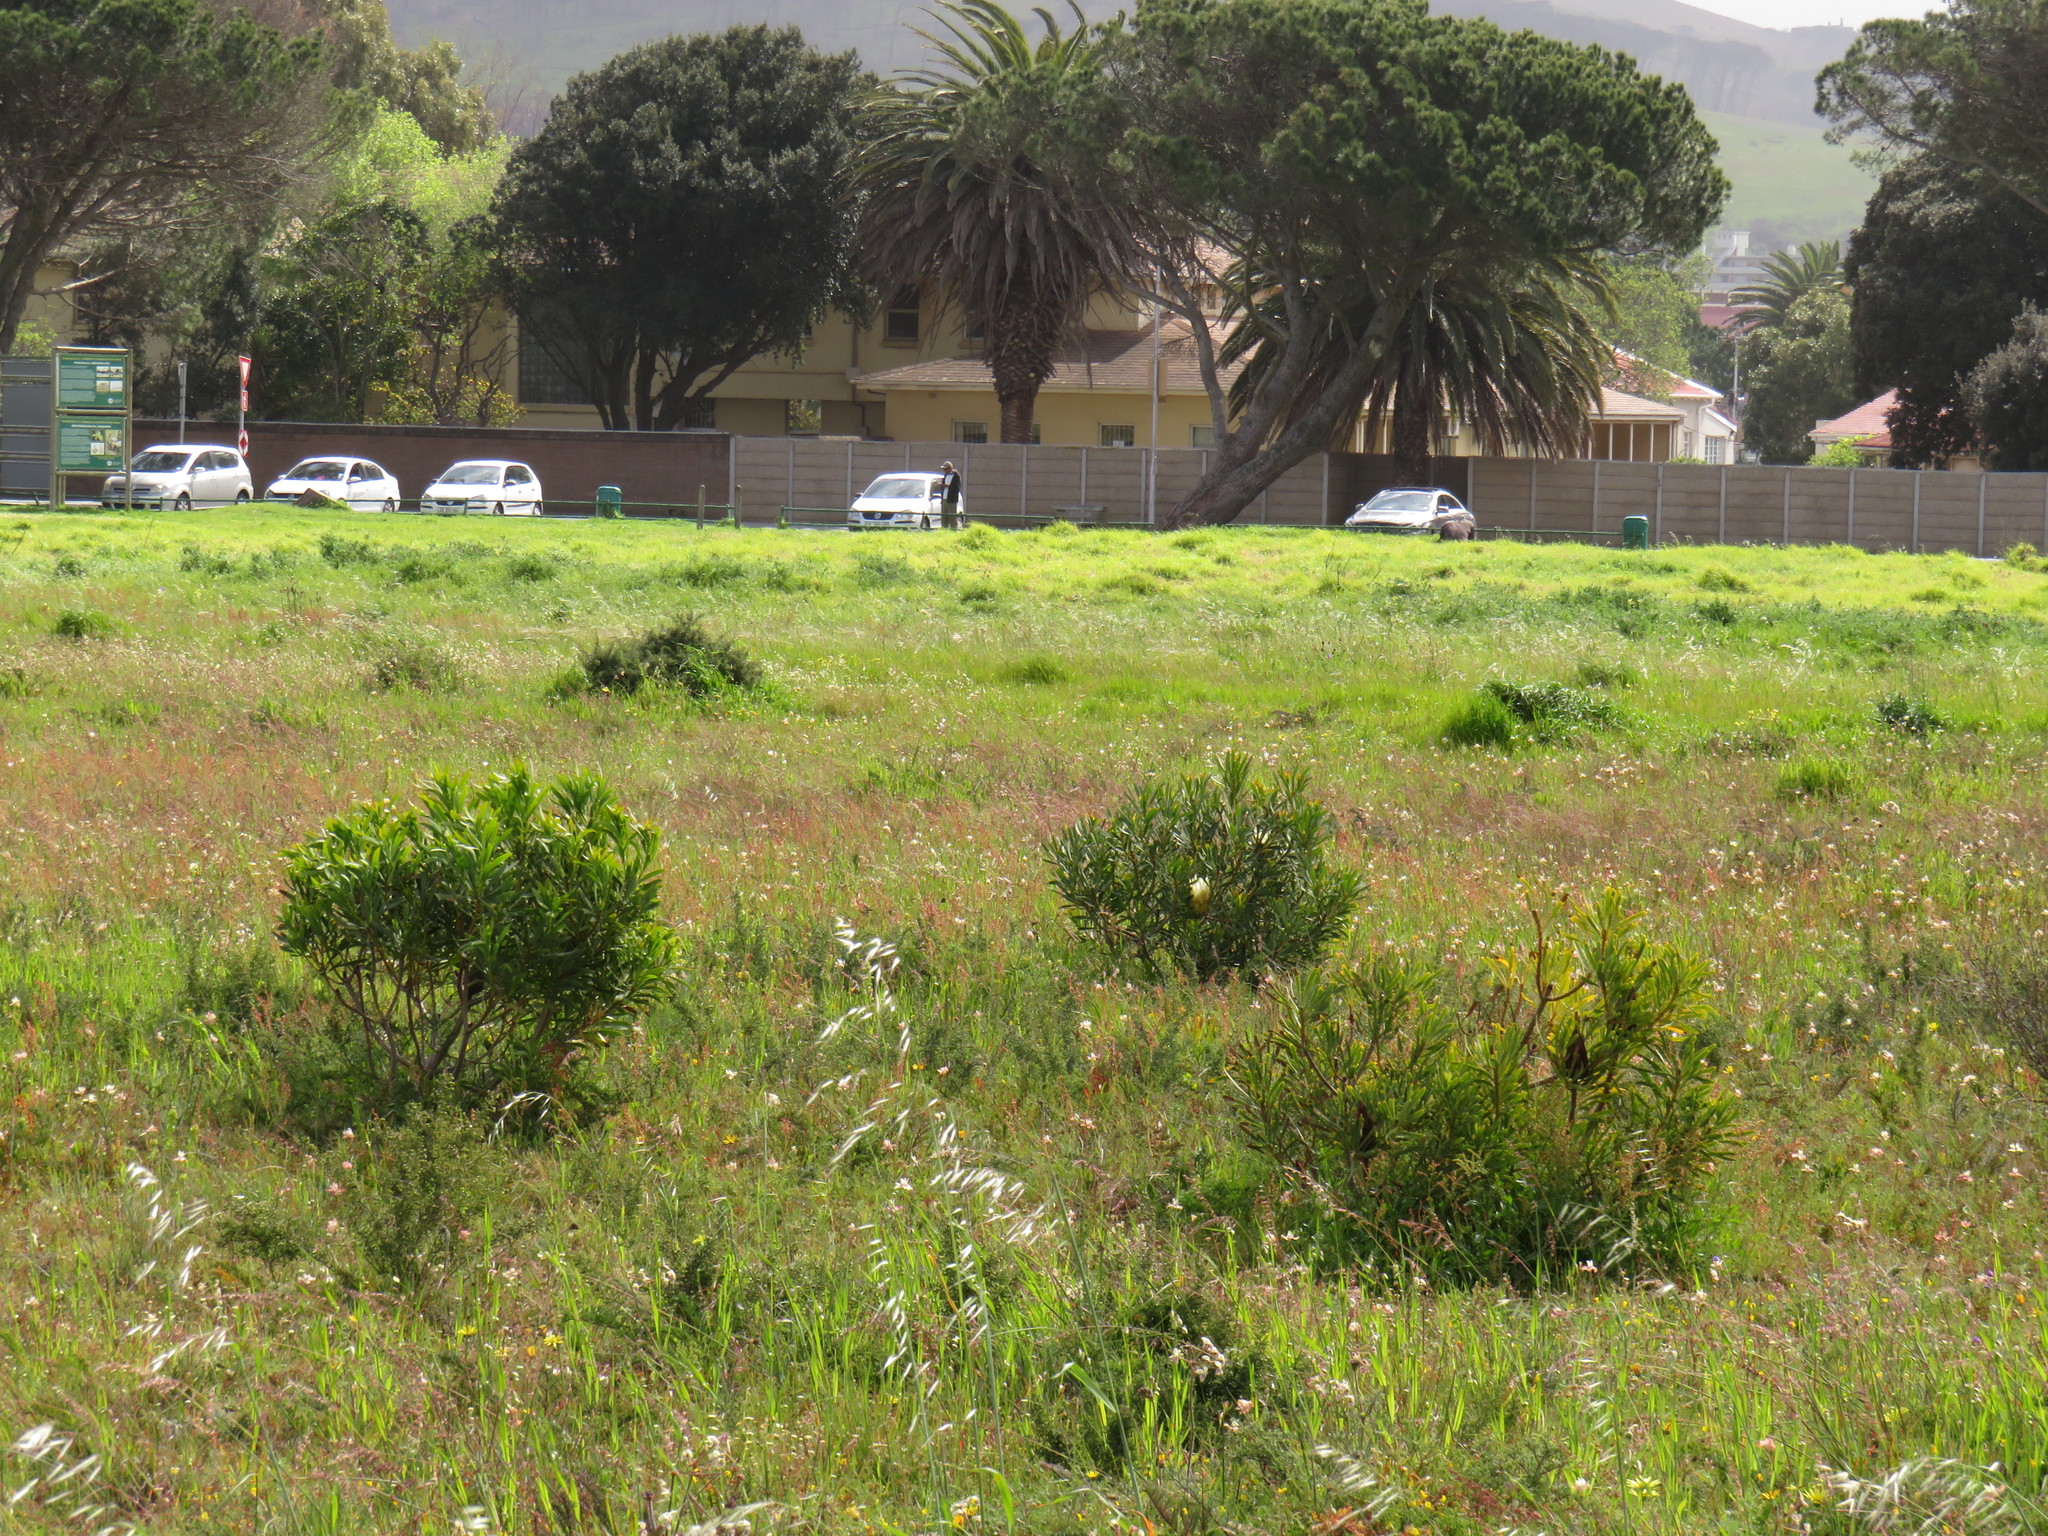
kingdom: Plantae
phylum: Tracheophyta
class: Magnoliopsida
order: Proteales
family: Proteaceae
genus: Protea
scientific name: Protea repens
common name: Sugarbush
